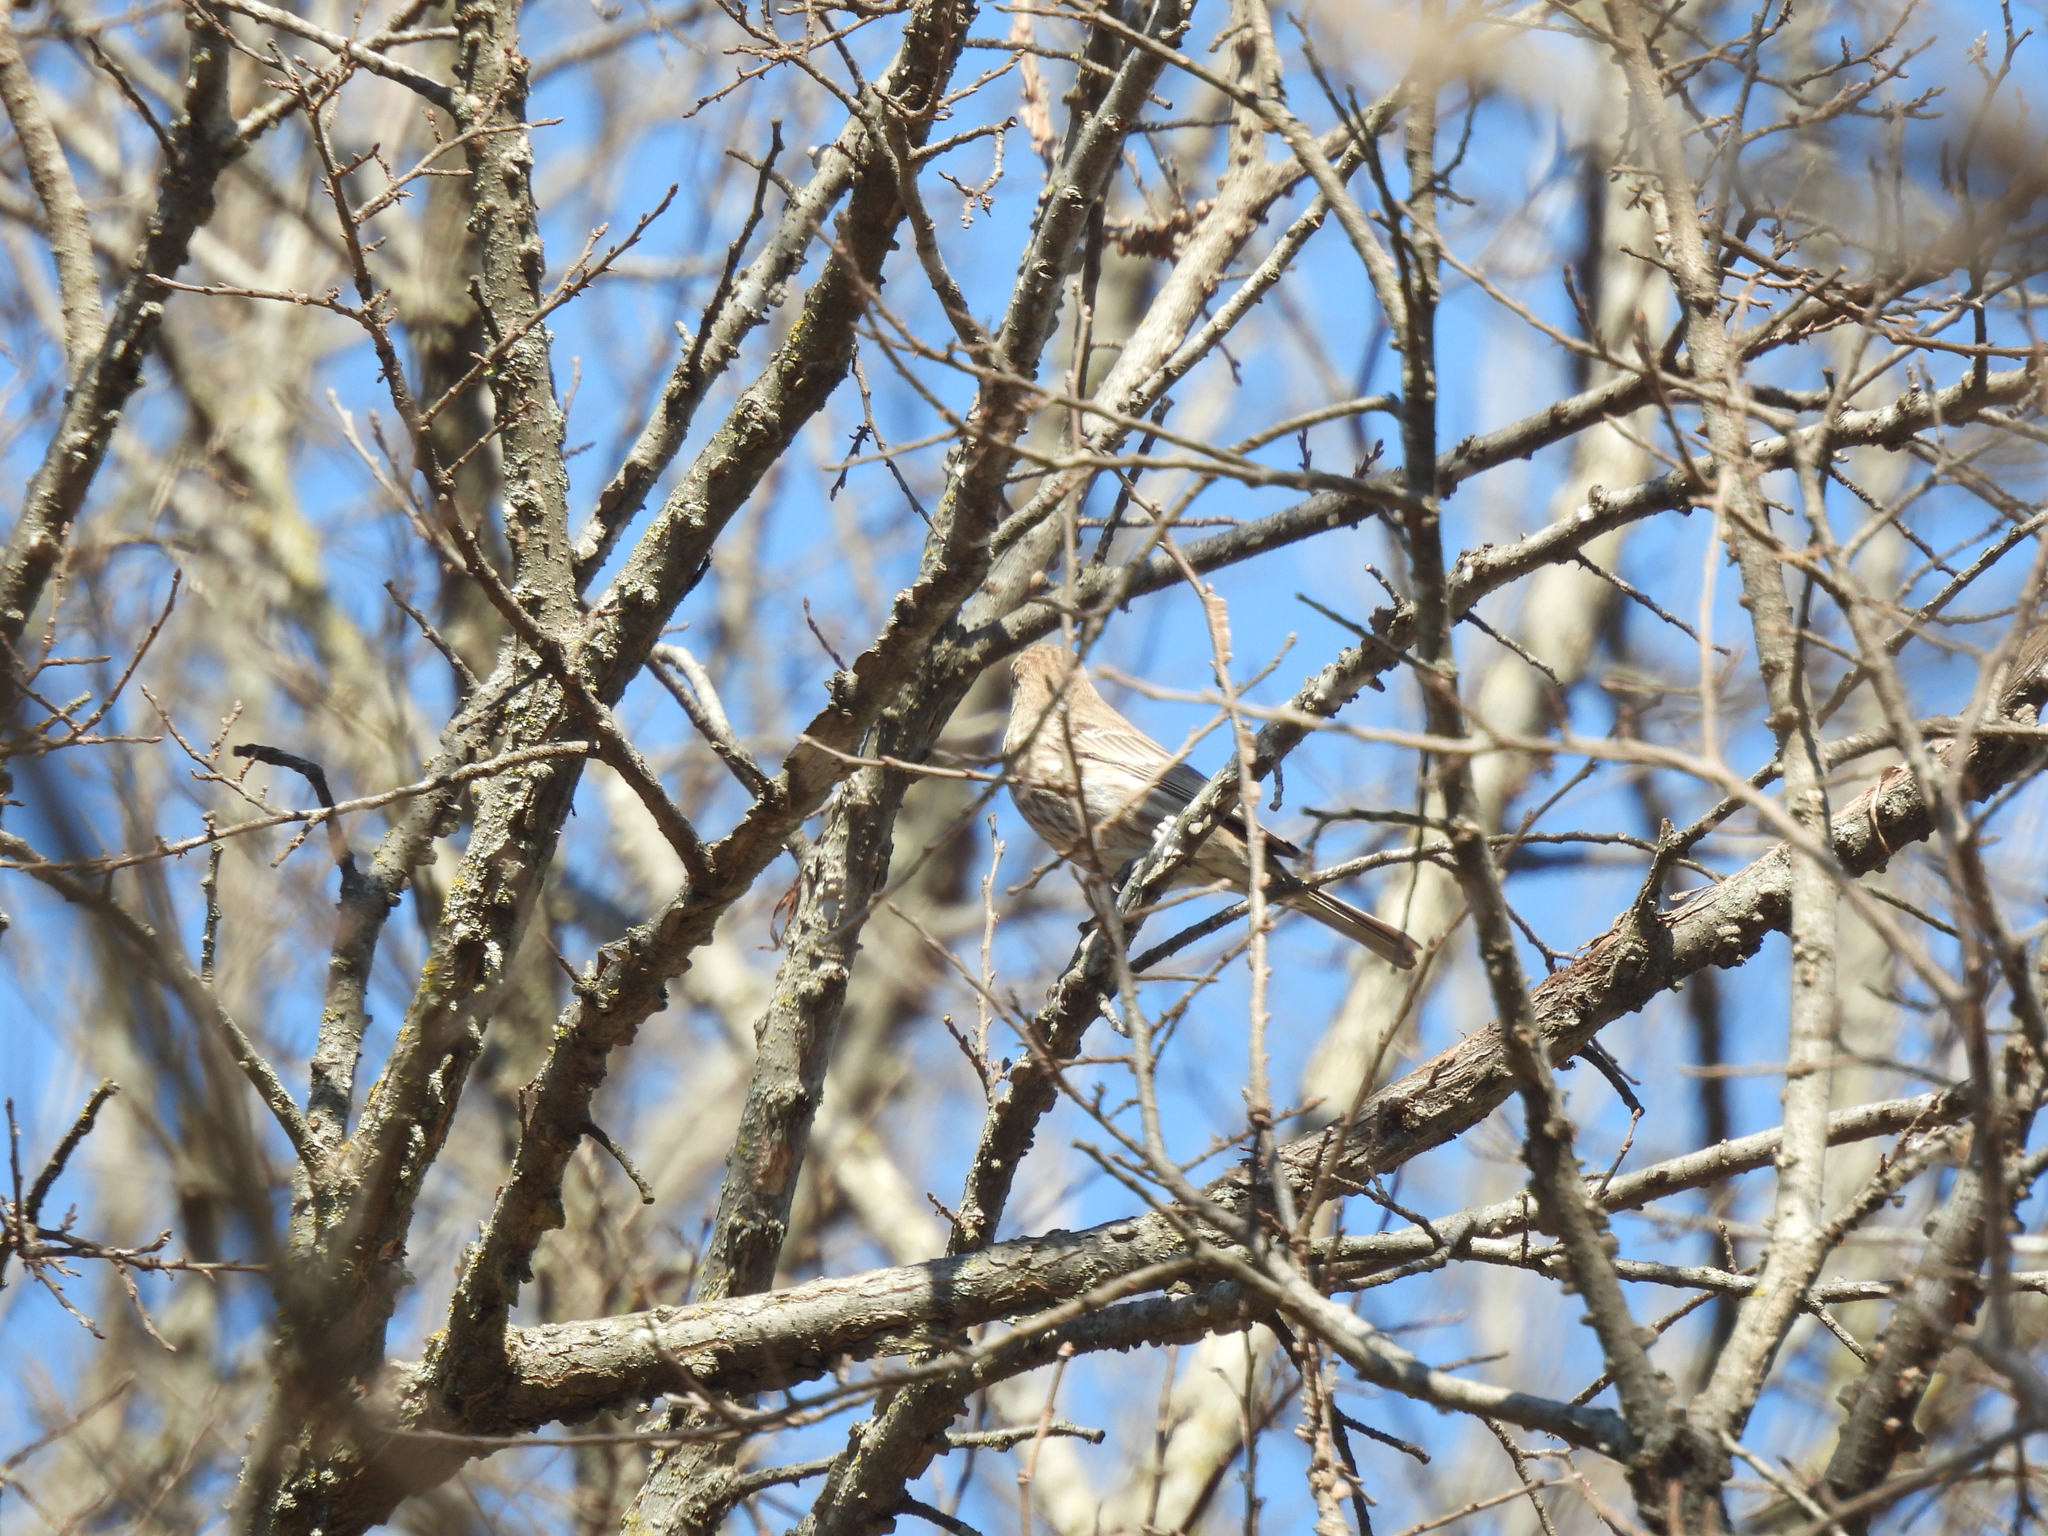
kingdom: Animalia
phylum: Chordata
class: Aves
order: Passeriformes
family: Fringillidae
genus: Haemorhous
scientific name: Haemorhous mexicanus
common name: House finch
